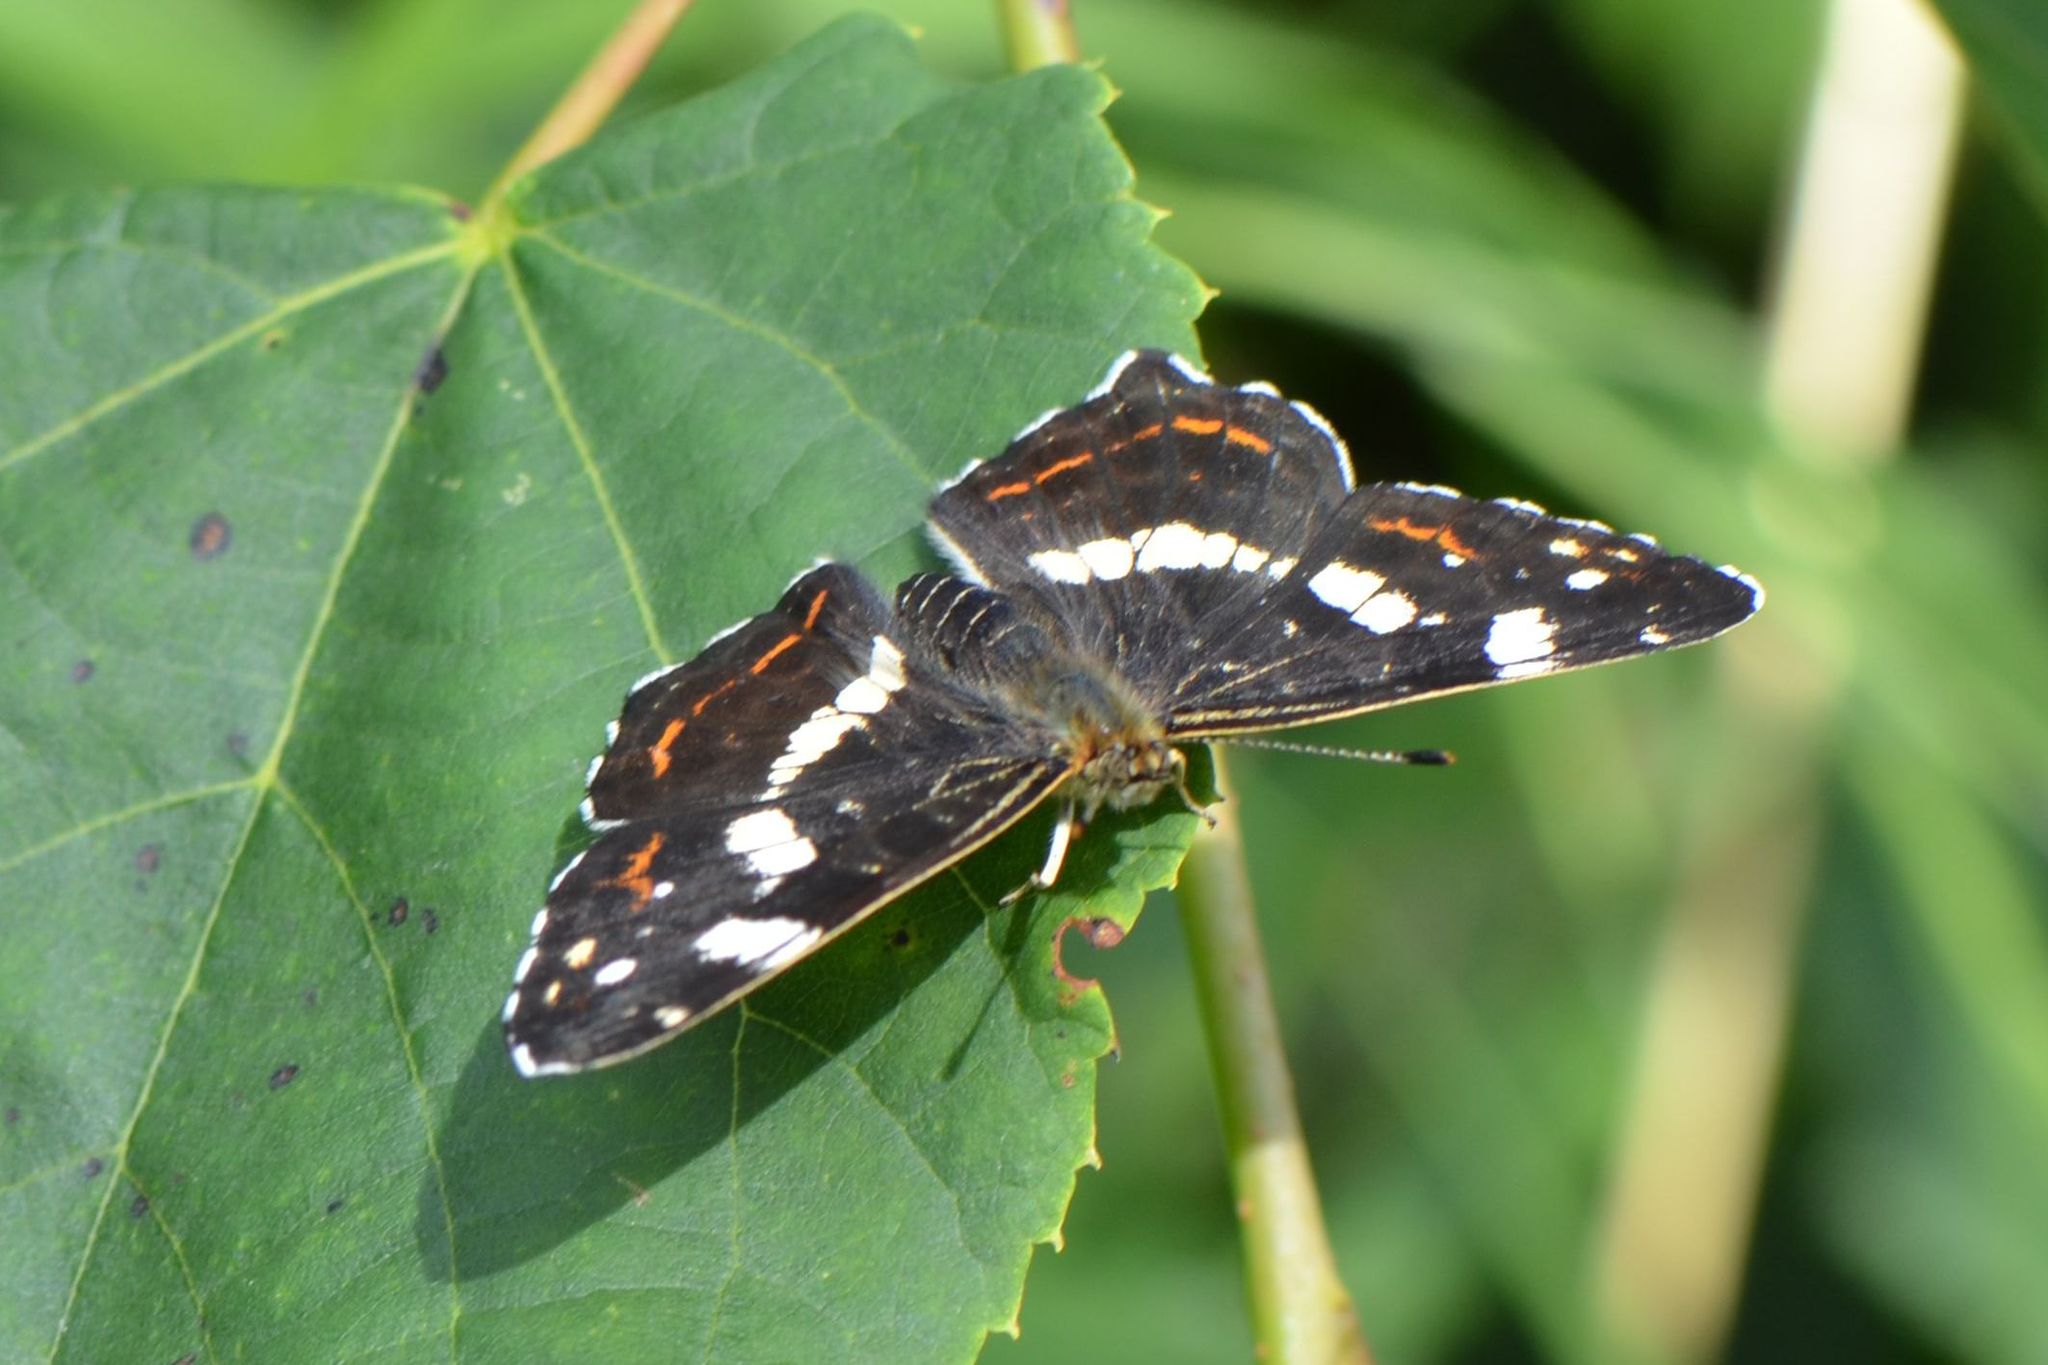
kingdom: Animalia
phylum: Arthropoda
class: Insecta
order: Lepidoptera
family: Nymphalidae
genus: Araschnia
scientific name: Araschnia levana
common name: Map butterfly
